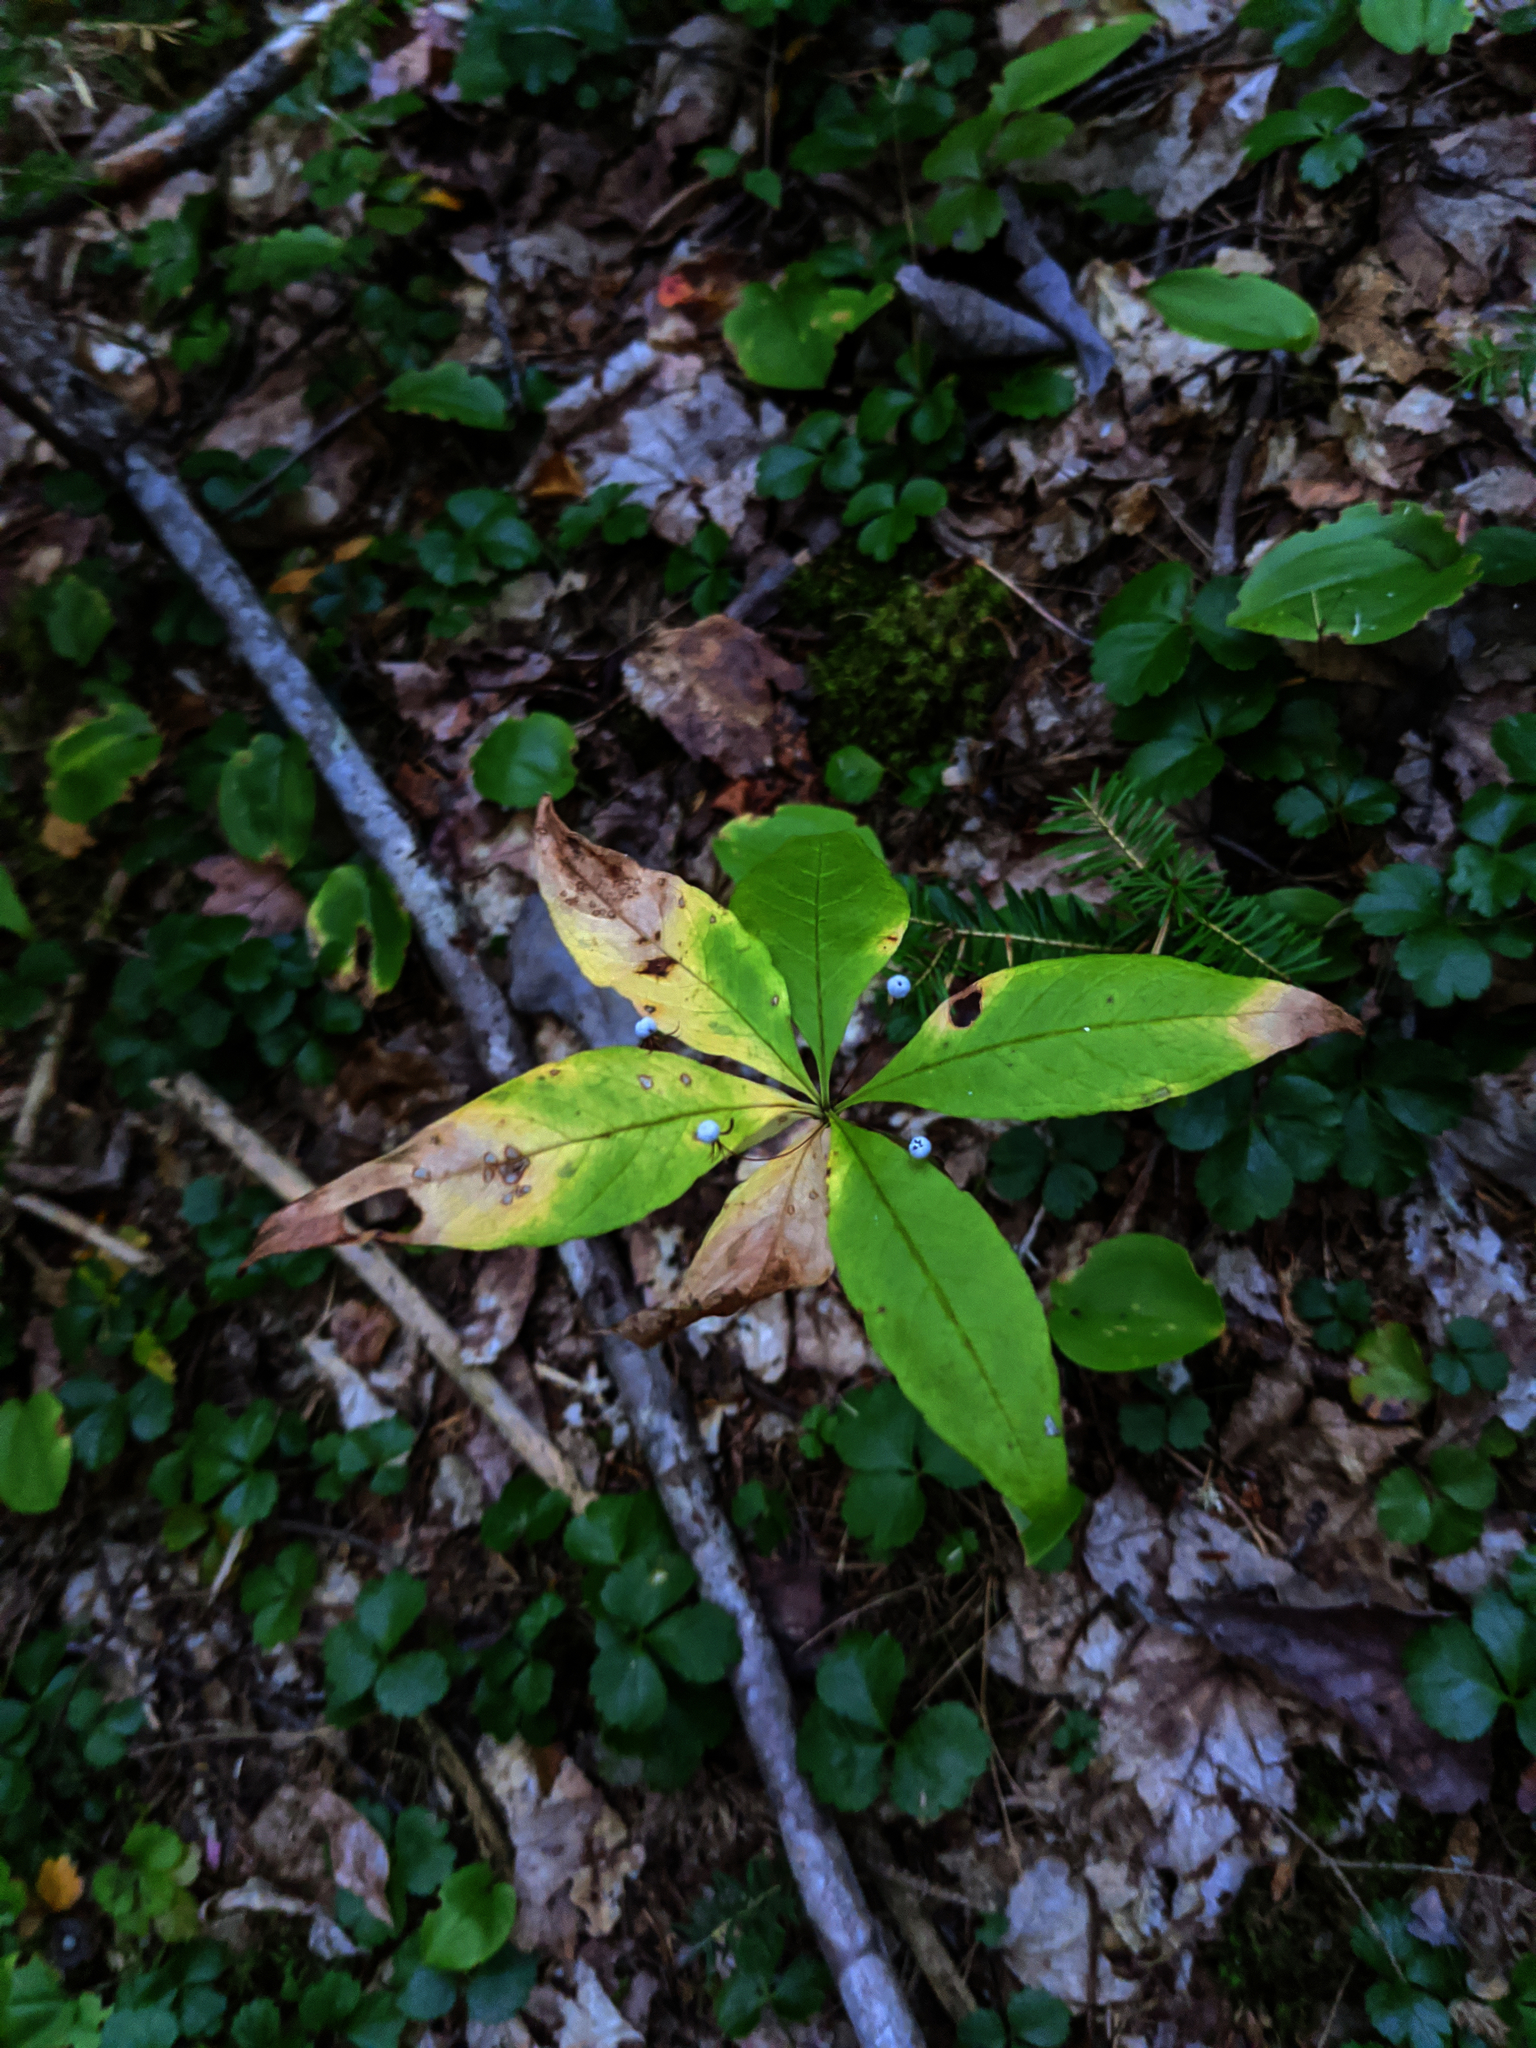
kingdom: Plantae
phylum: Tracheophyta
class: Liliopsida
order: Asparagales
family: Asparagaceae
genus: Maianthemum
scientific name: Maianthemum canadense
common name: False lily-of-the-valley
